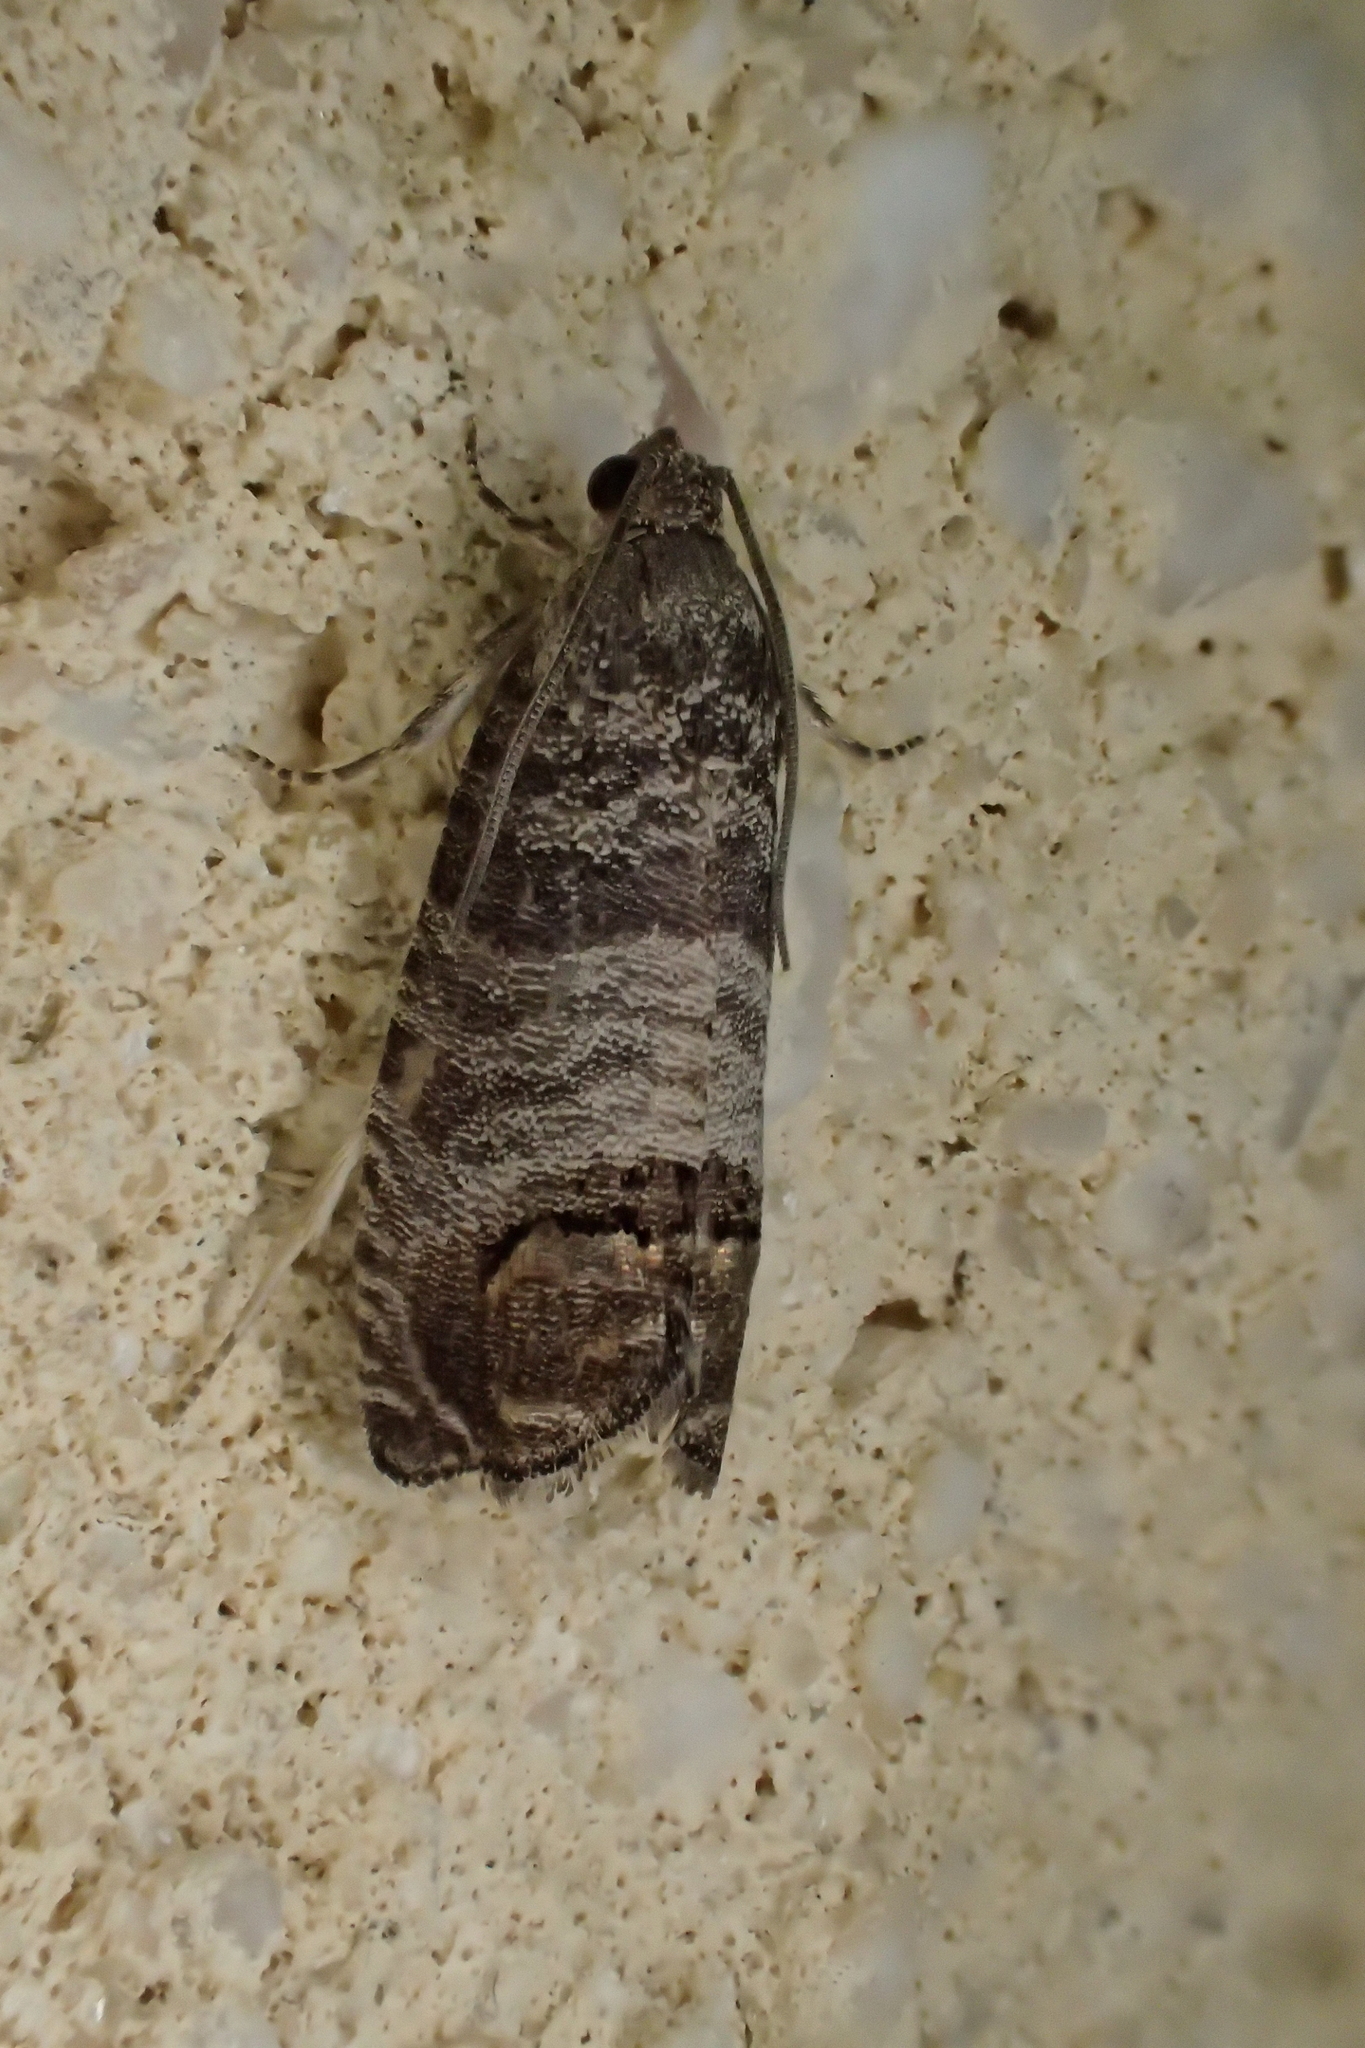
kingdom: Animalia
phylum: Arthropoda
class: Insecta
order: Lepidoptera
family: Tortricidae
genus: Cydia
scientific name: Cydia pomonella
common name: Codling moth
